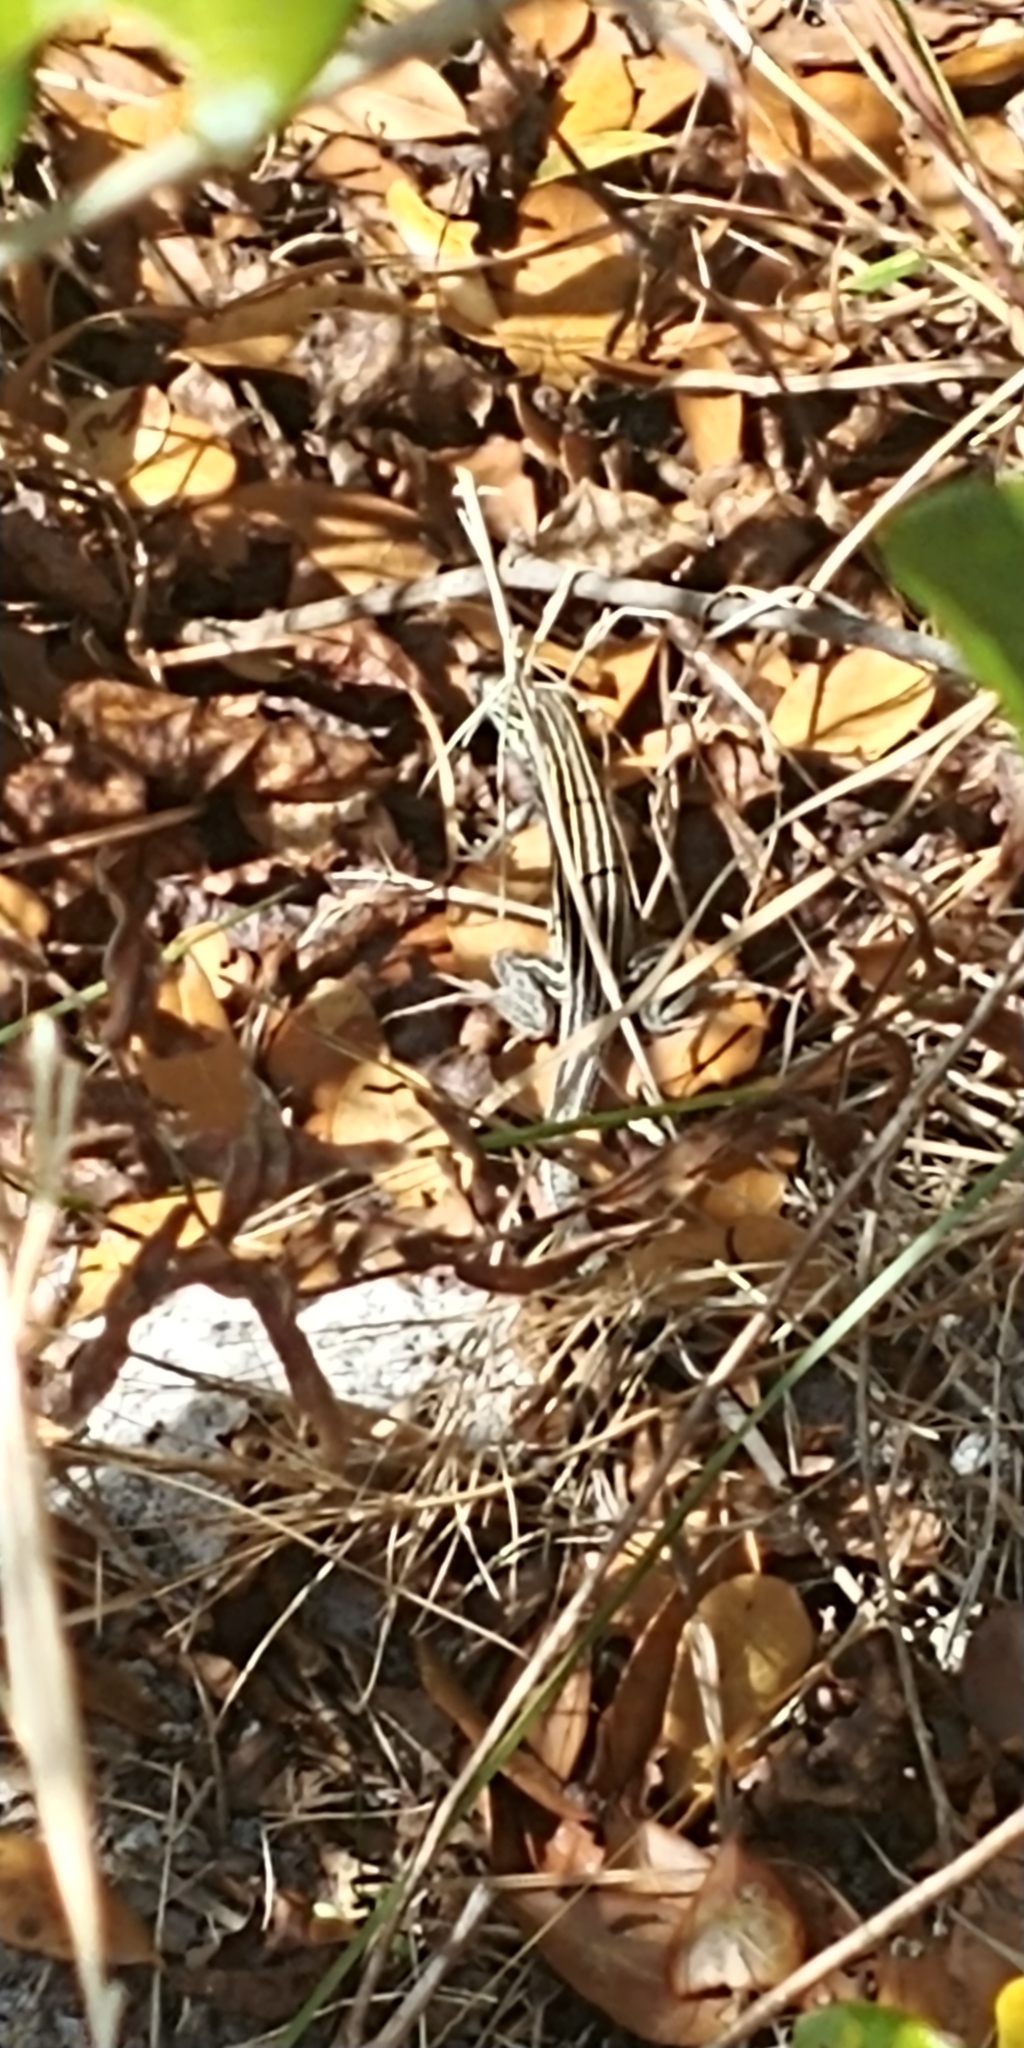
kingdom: Animalia
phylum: Chordata
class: Squamata
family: Teiidae
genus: Aspidoscelis
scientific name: Aspidoscelis sexlineatus
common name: Six-lined racerunner
